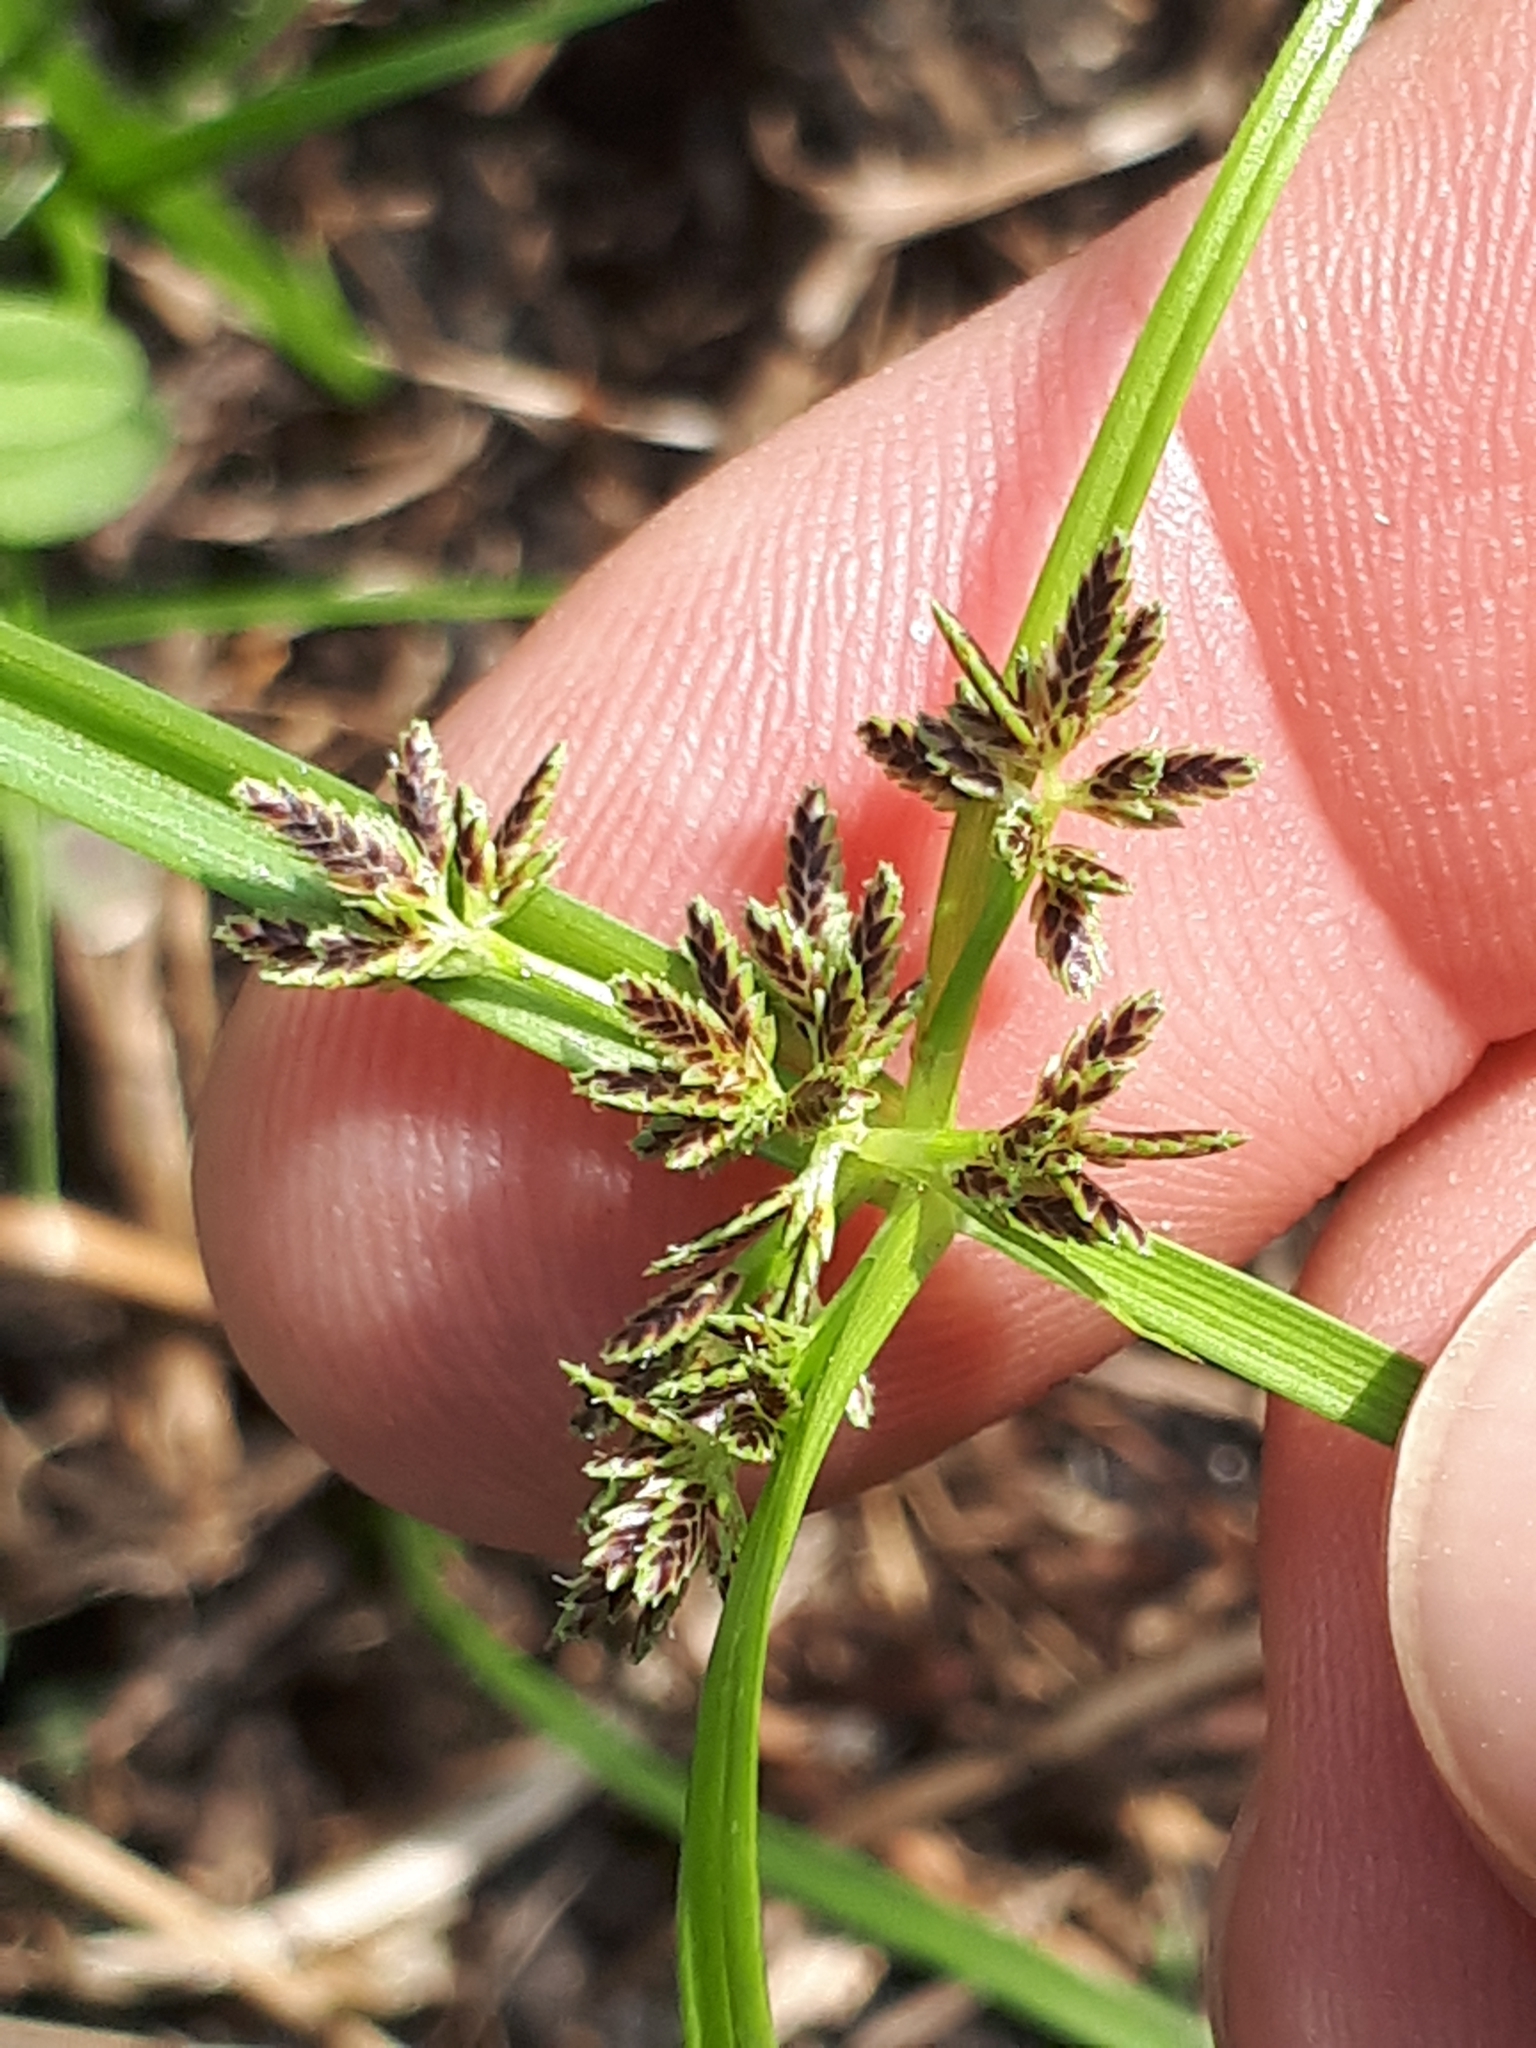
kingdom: Plantae
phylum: Tracheophyta
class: Liliopsida
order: Poales
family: Cyperaceae
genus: Cyperus
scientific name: Cyperus fuscus
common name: Brown galingale
